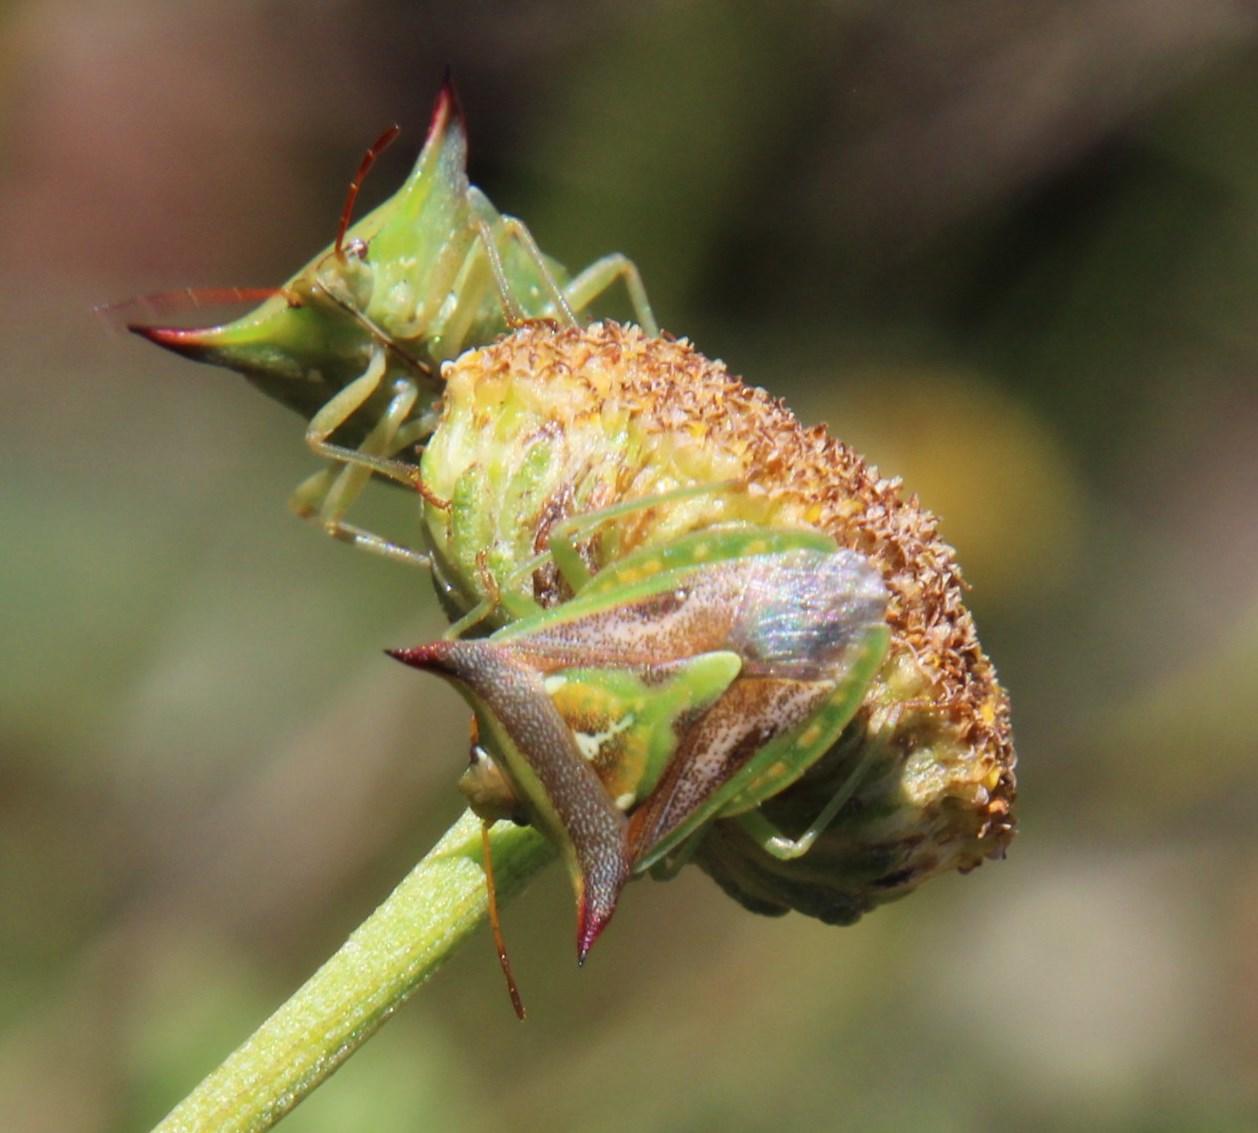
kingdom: Animalia
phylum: Arthropoda
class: Insecta
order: Hemiptera
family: Pentatomidae
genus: Veterna
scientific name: Veterna
